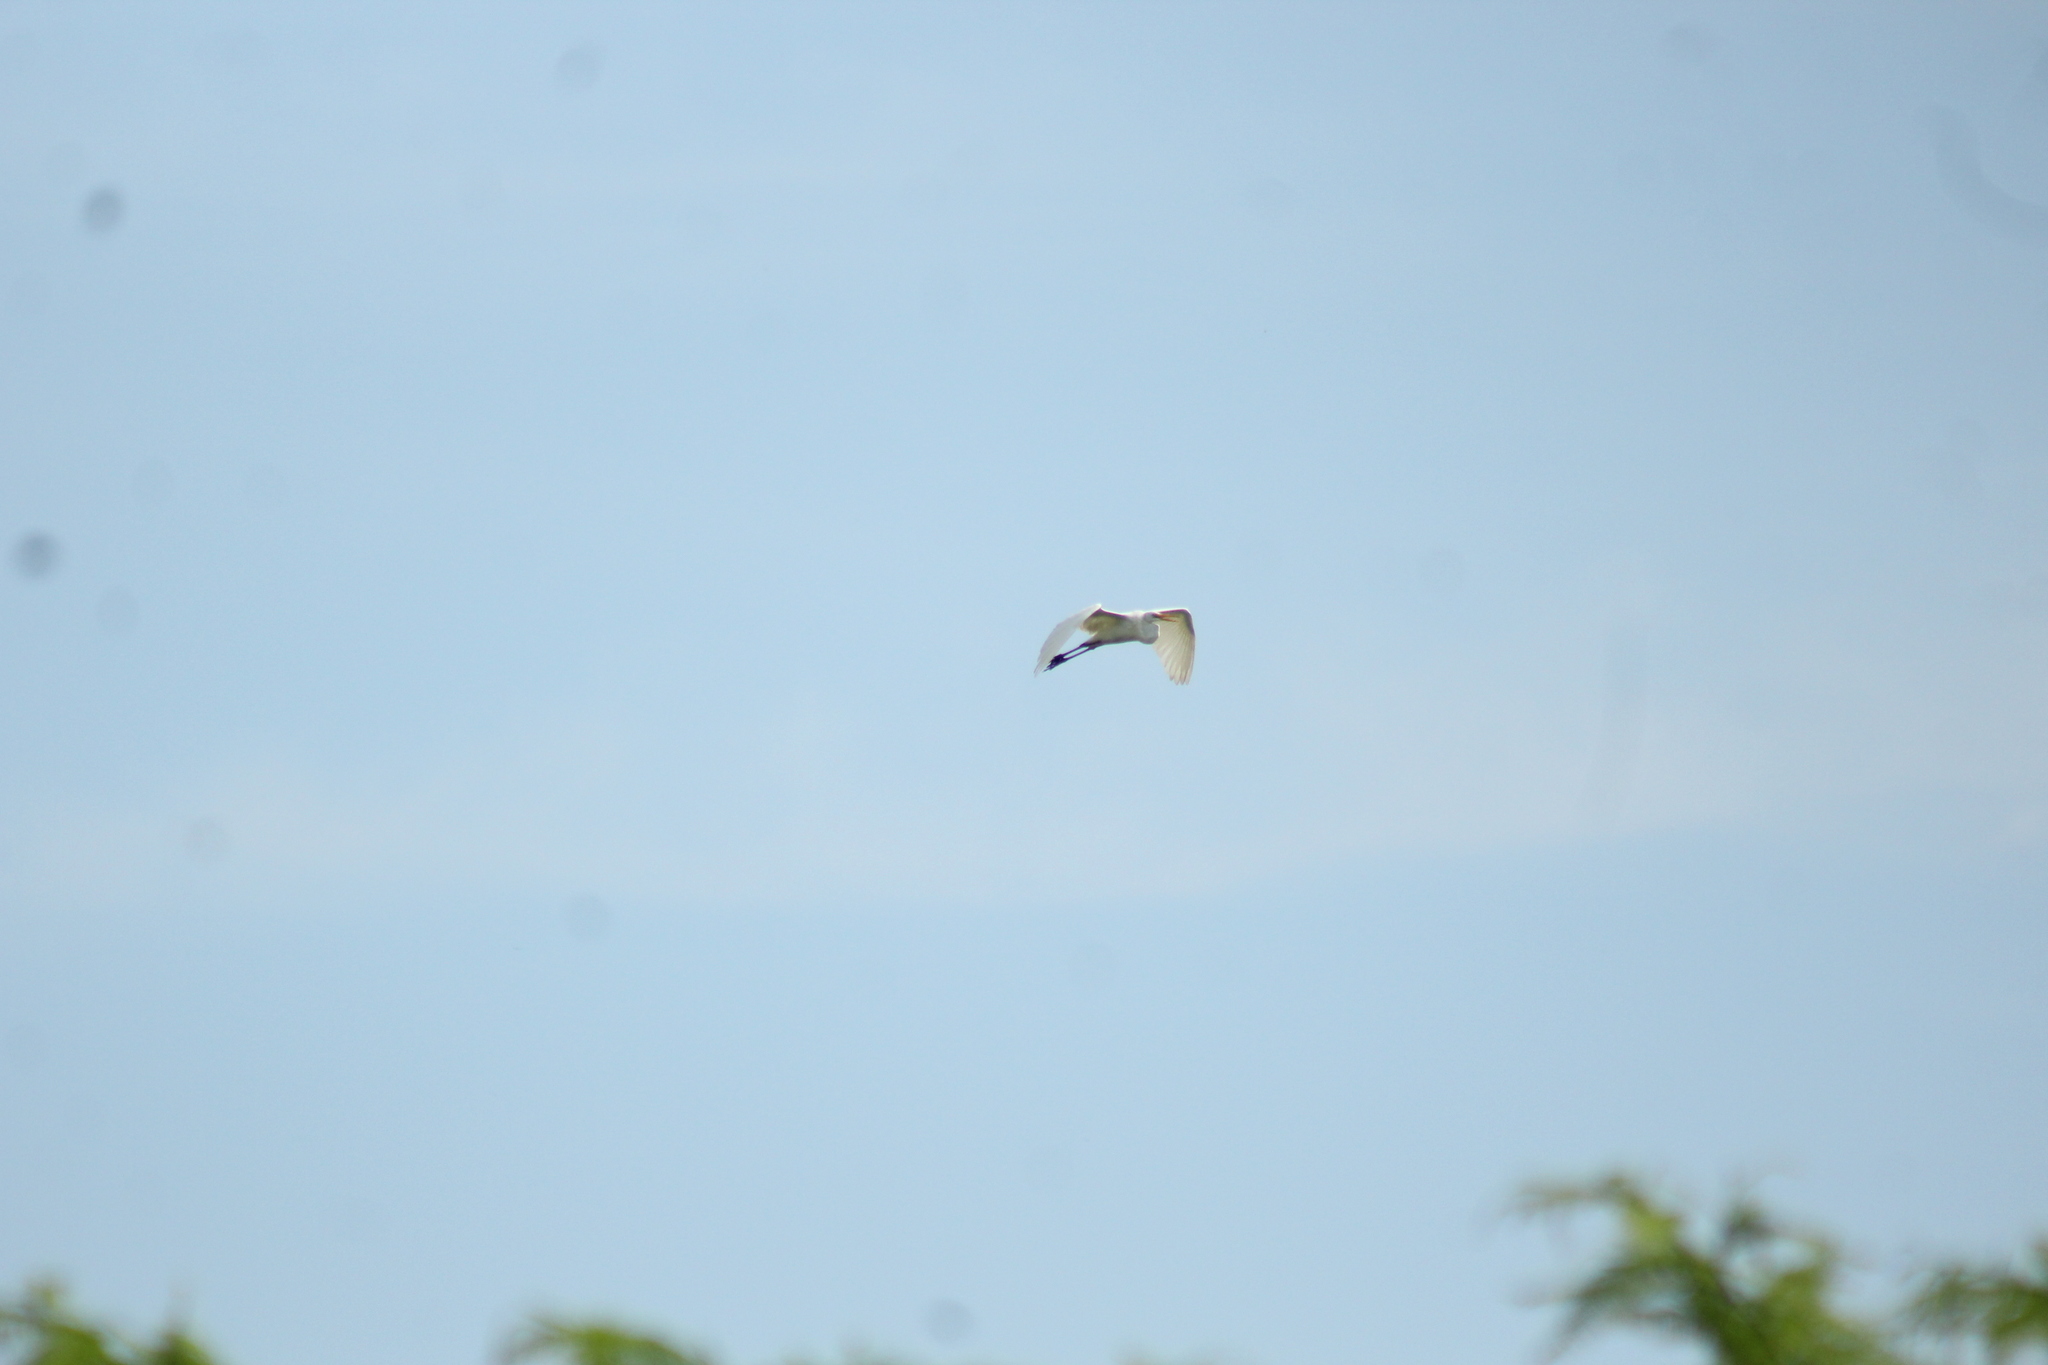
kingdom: Animalia
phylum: Chordata
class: Aves
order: Pelecaniformes
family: Ardeidae
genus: Ardea
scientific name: Ardea alba
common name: Great egret
